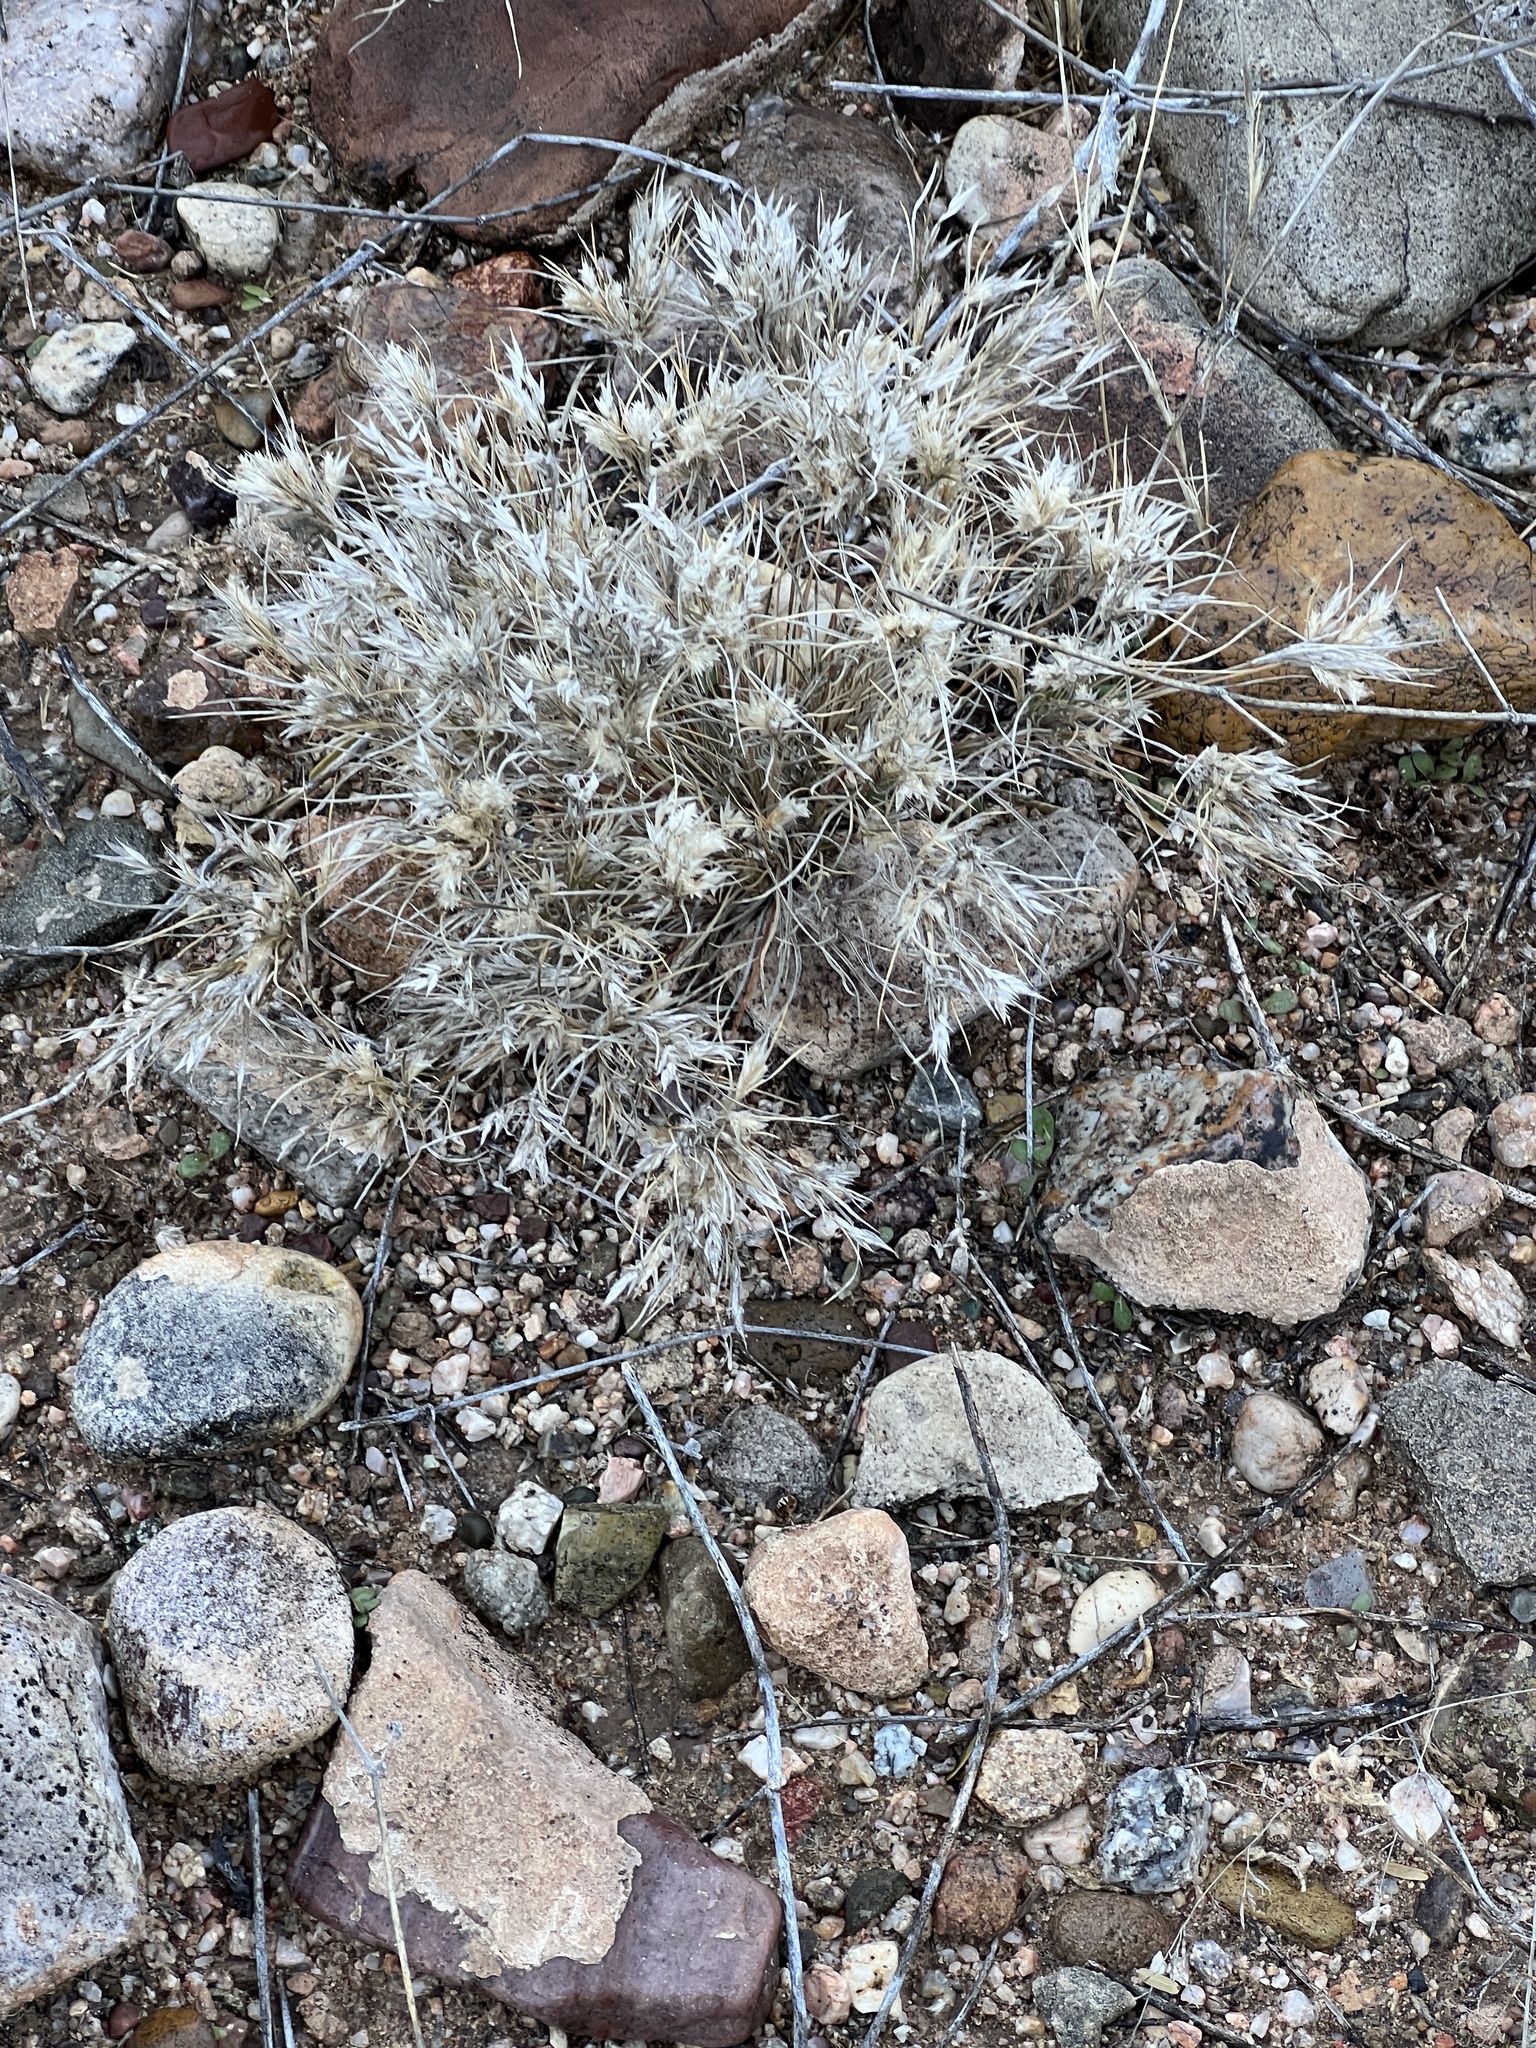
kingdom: Plantae
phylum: Tracheophyta
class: Liliopsida
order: Poales
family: Poaceae
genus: Dasyochloa
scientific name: Dasyochloa pulchella
